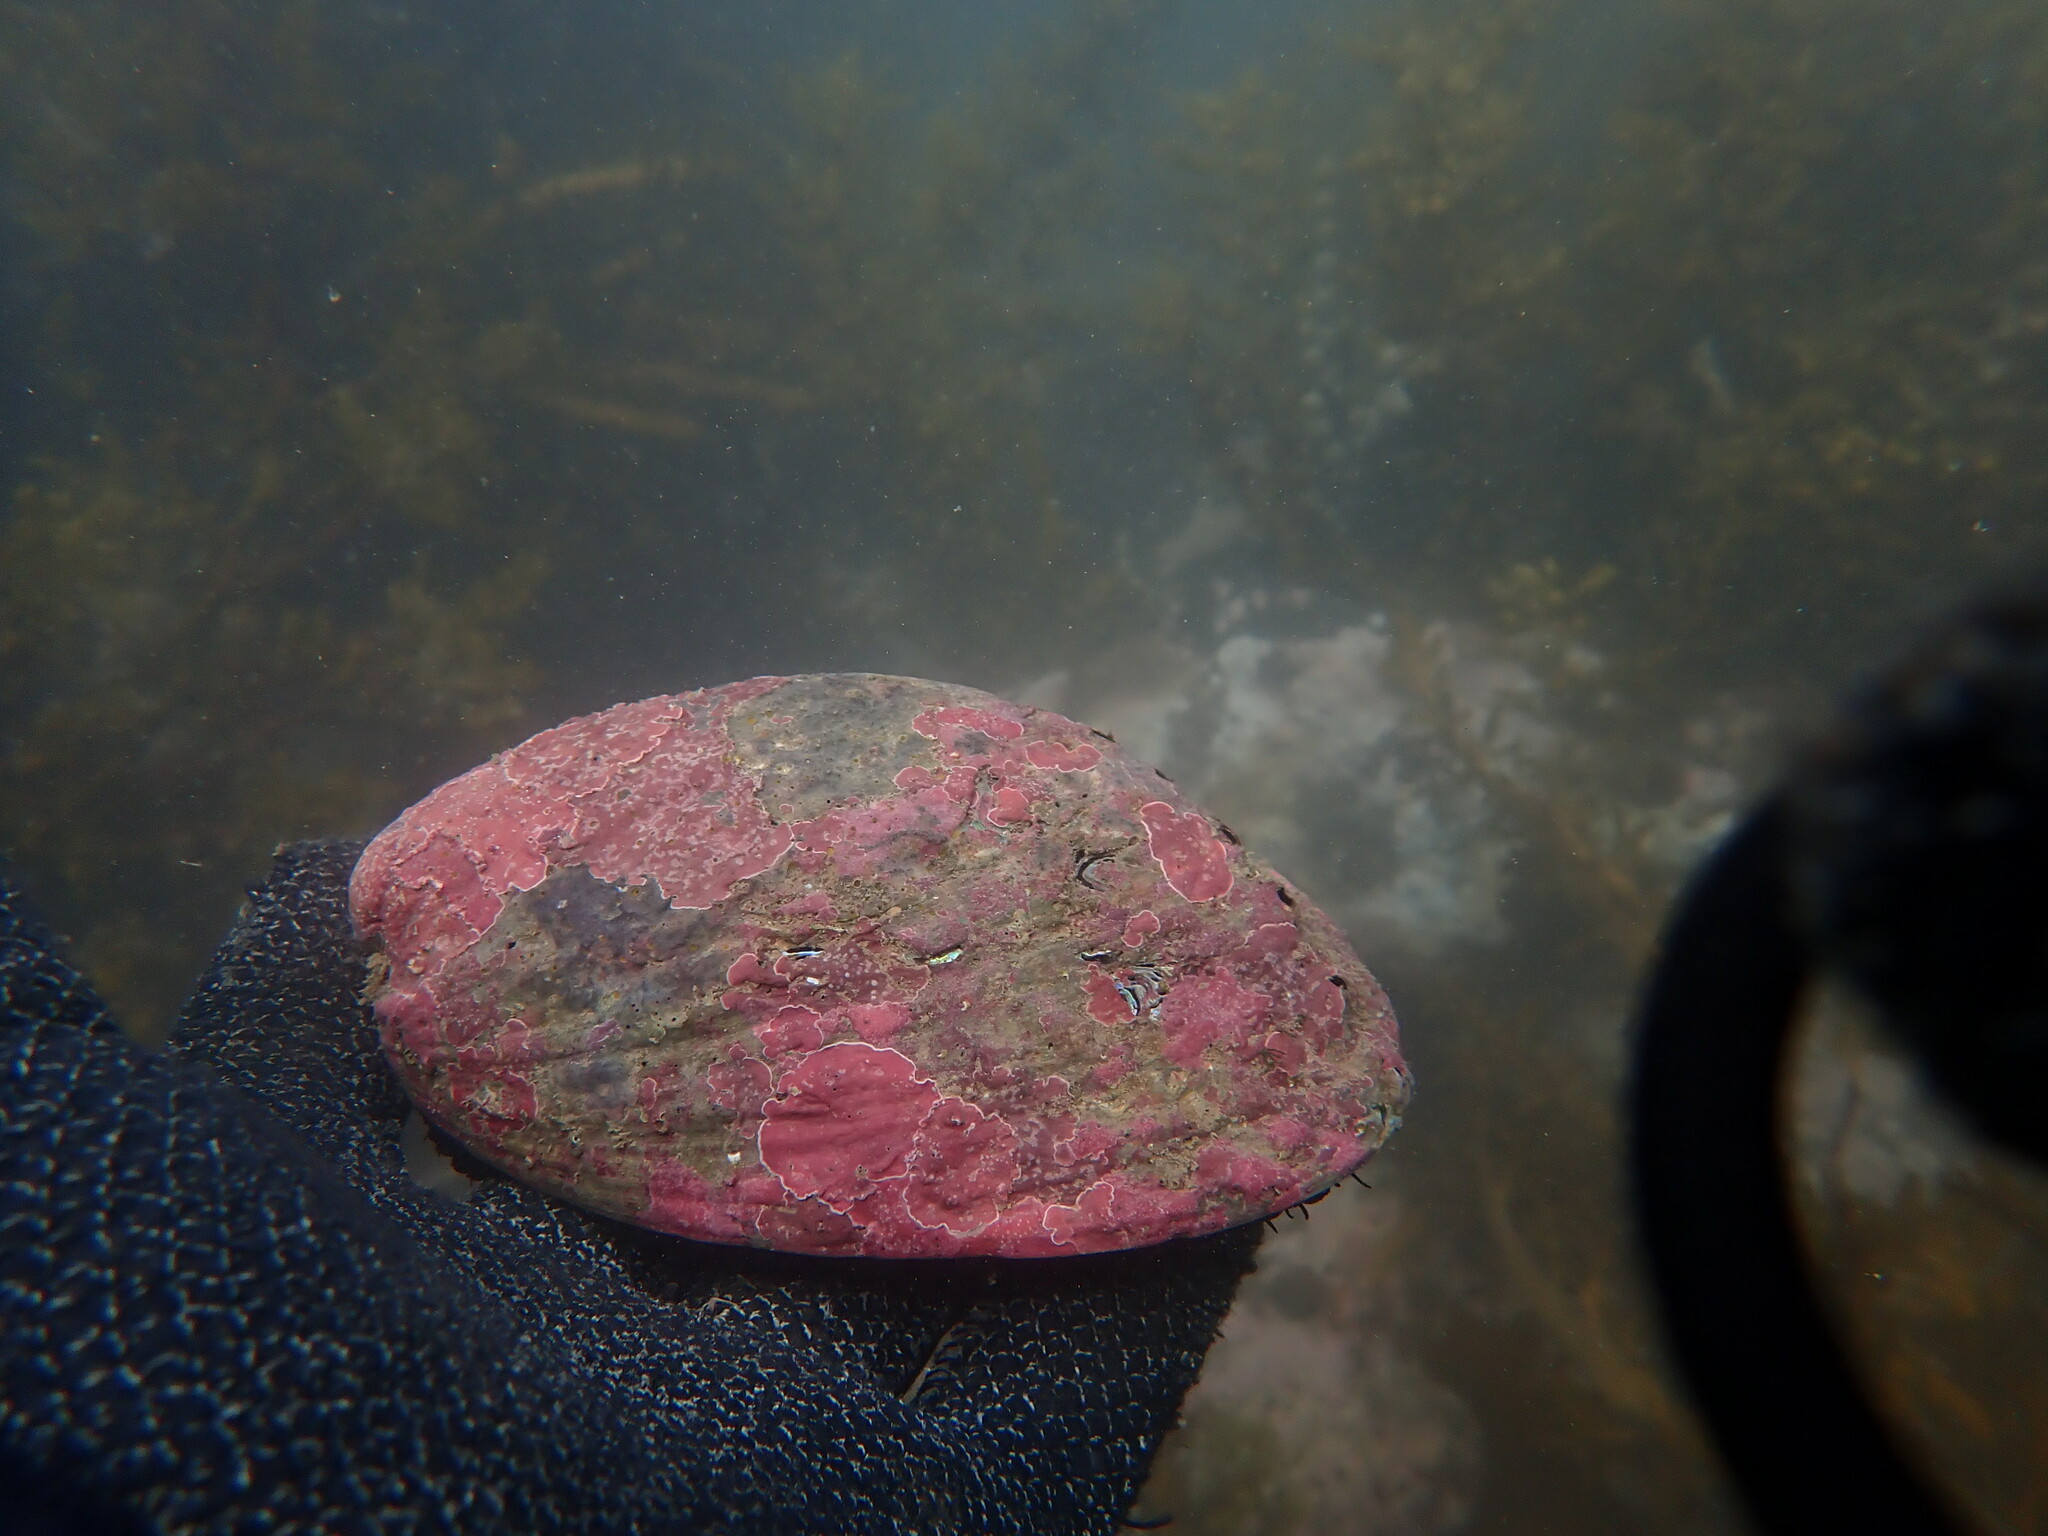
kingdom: Animalia
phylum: Mollusca
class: Gastropoda
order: Lepetellida
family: Haliotidae
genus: Haliotis
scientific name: Haliotis iris
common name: Abalone
